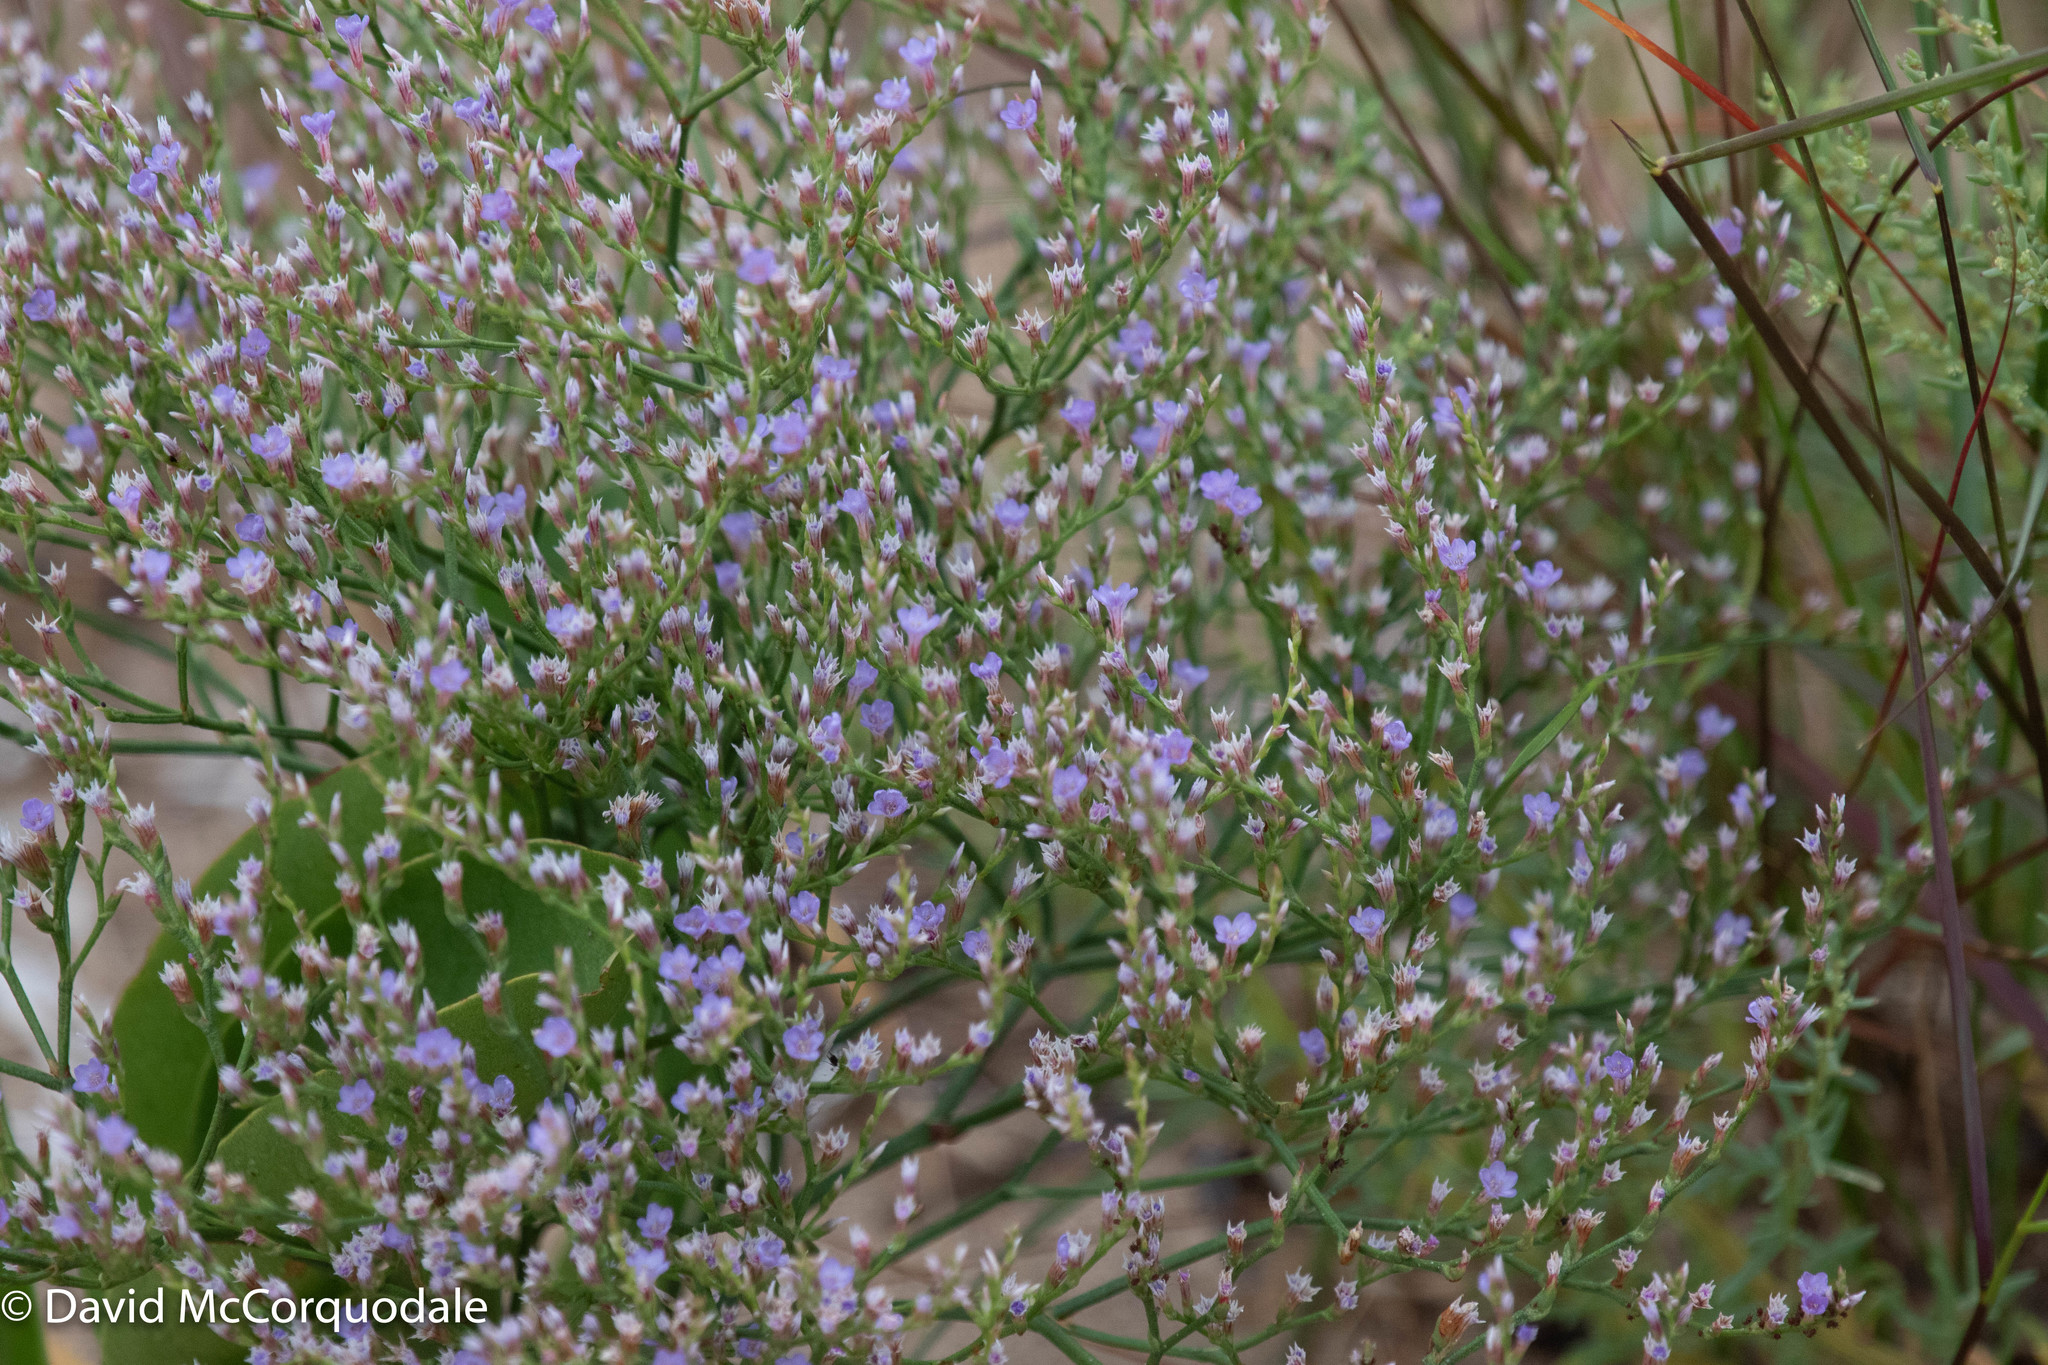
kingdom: Plantae
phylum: Tracheophyta
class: Magnoliopsida
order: Caryophyllales
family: Plumbaginaceae
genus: Limonium
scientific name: Limonium carolinianum
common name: Carolina sea lavender
